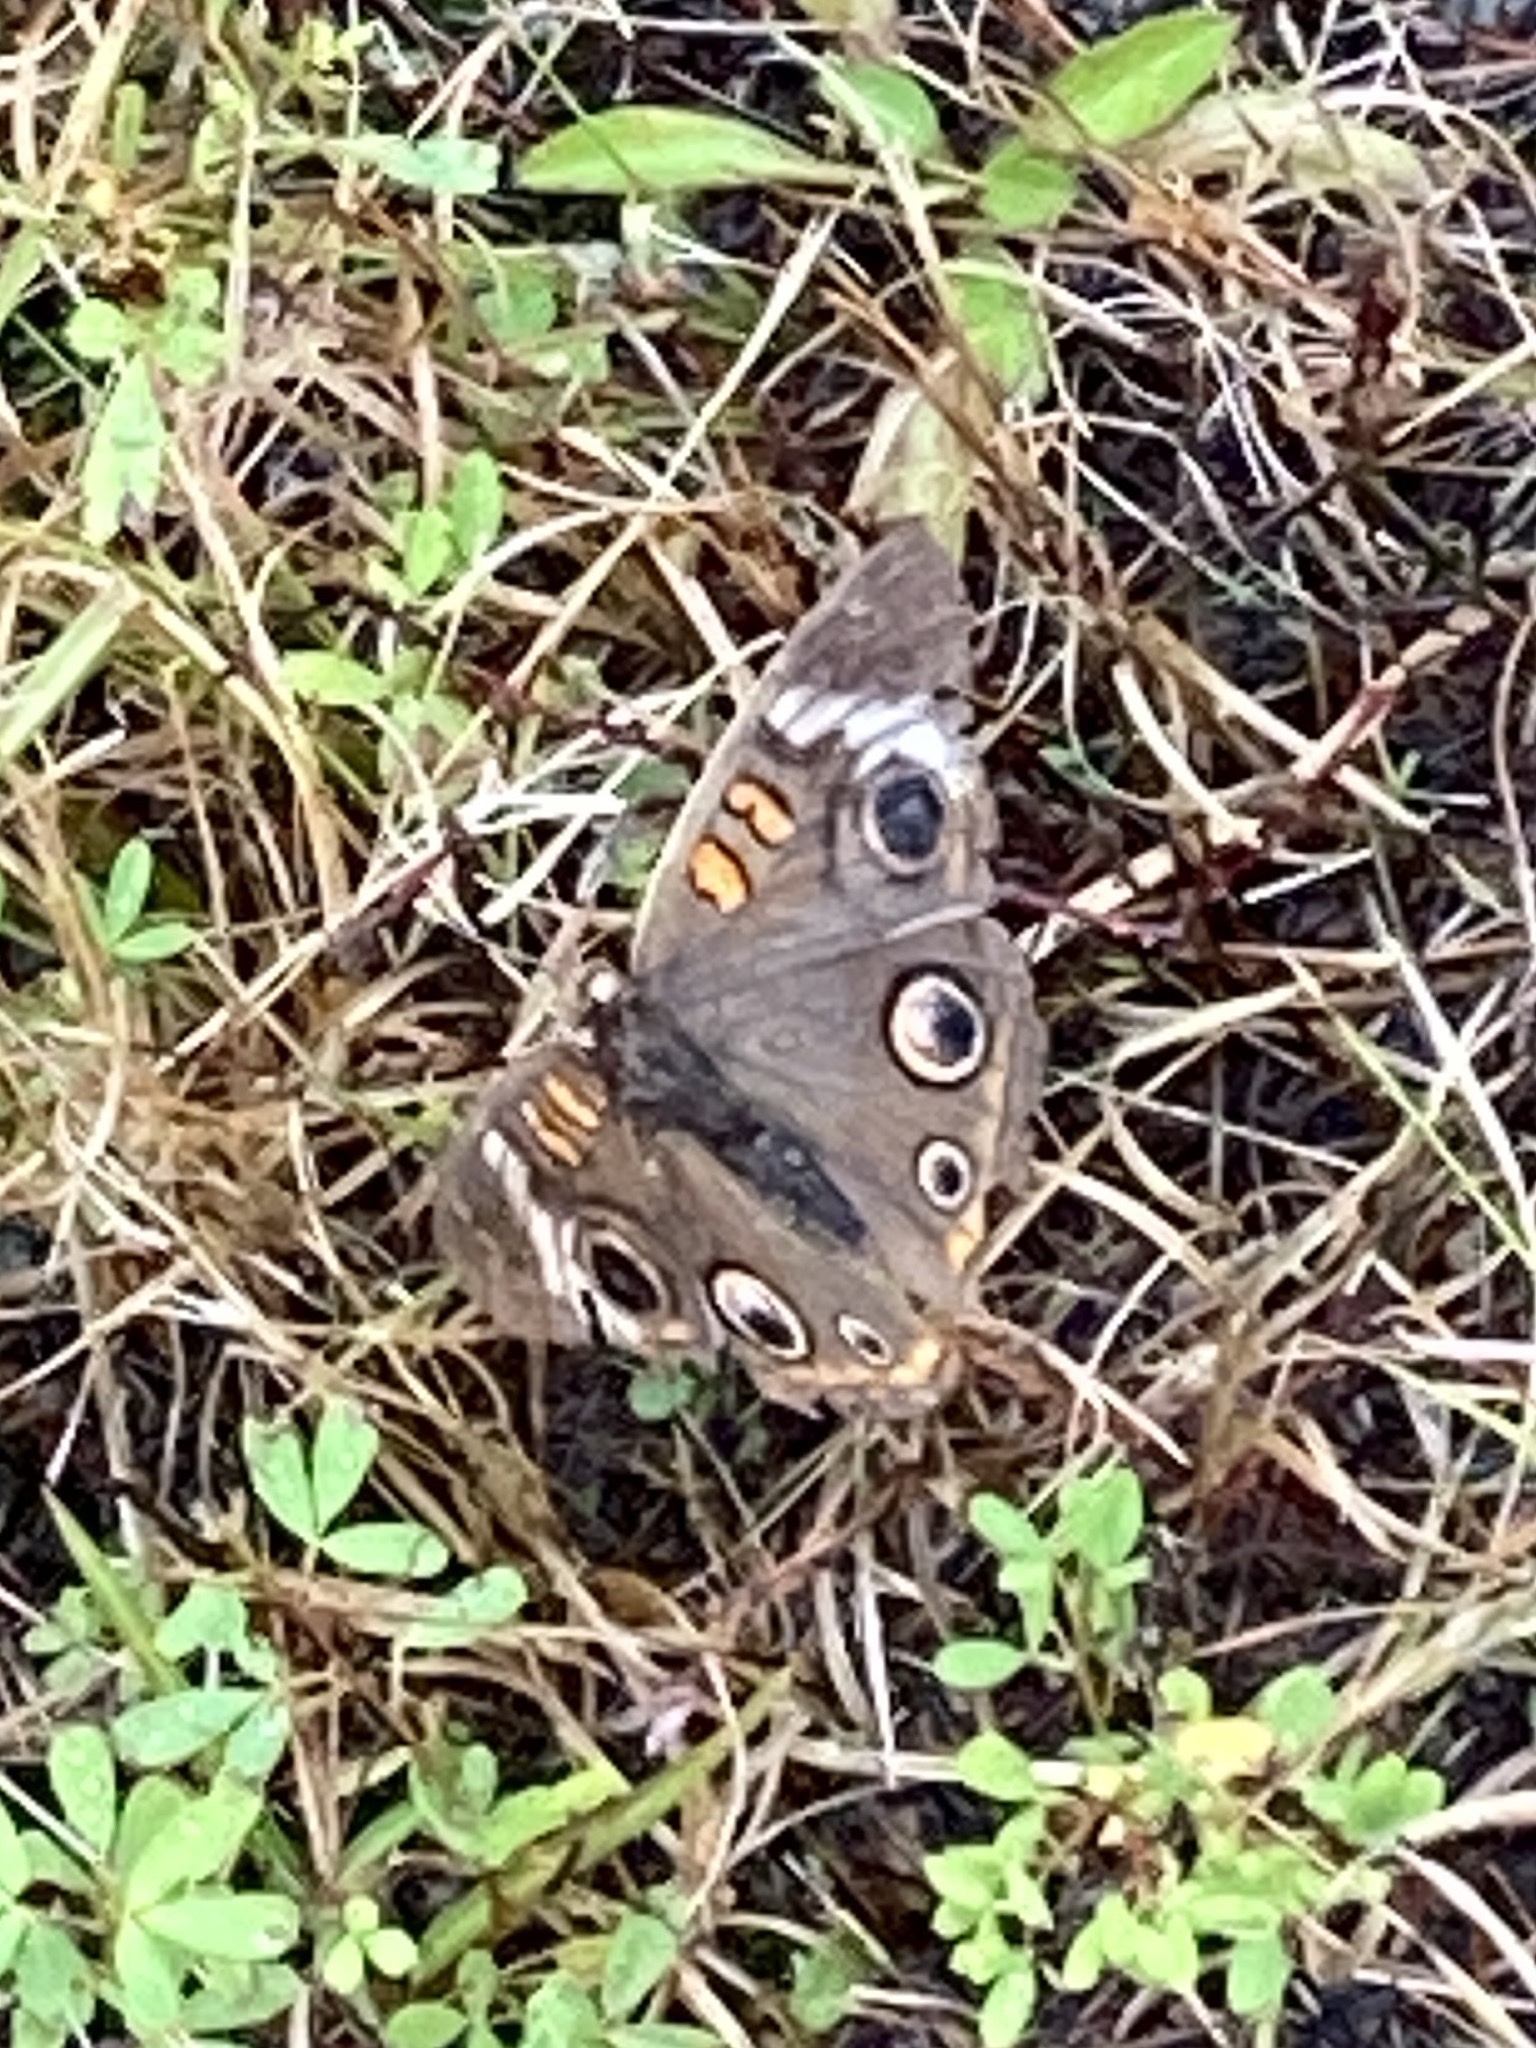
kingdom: Animalia
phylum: Arthropoda
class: Insecta
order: Lepidoptera
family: Nymphalidae
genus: Junonia
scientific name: Junonia coenia
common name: Common buckeye
